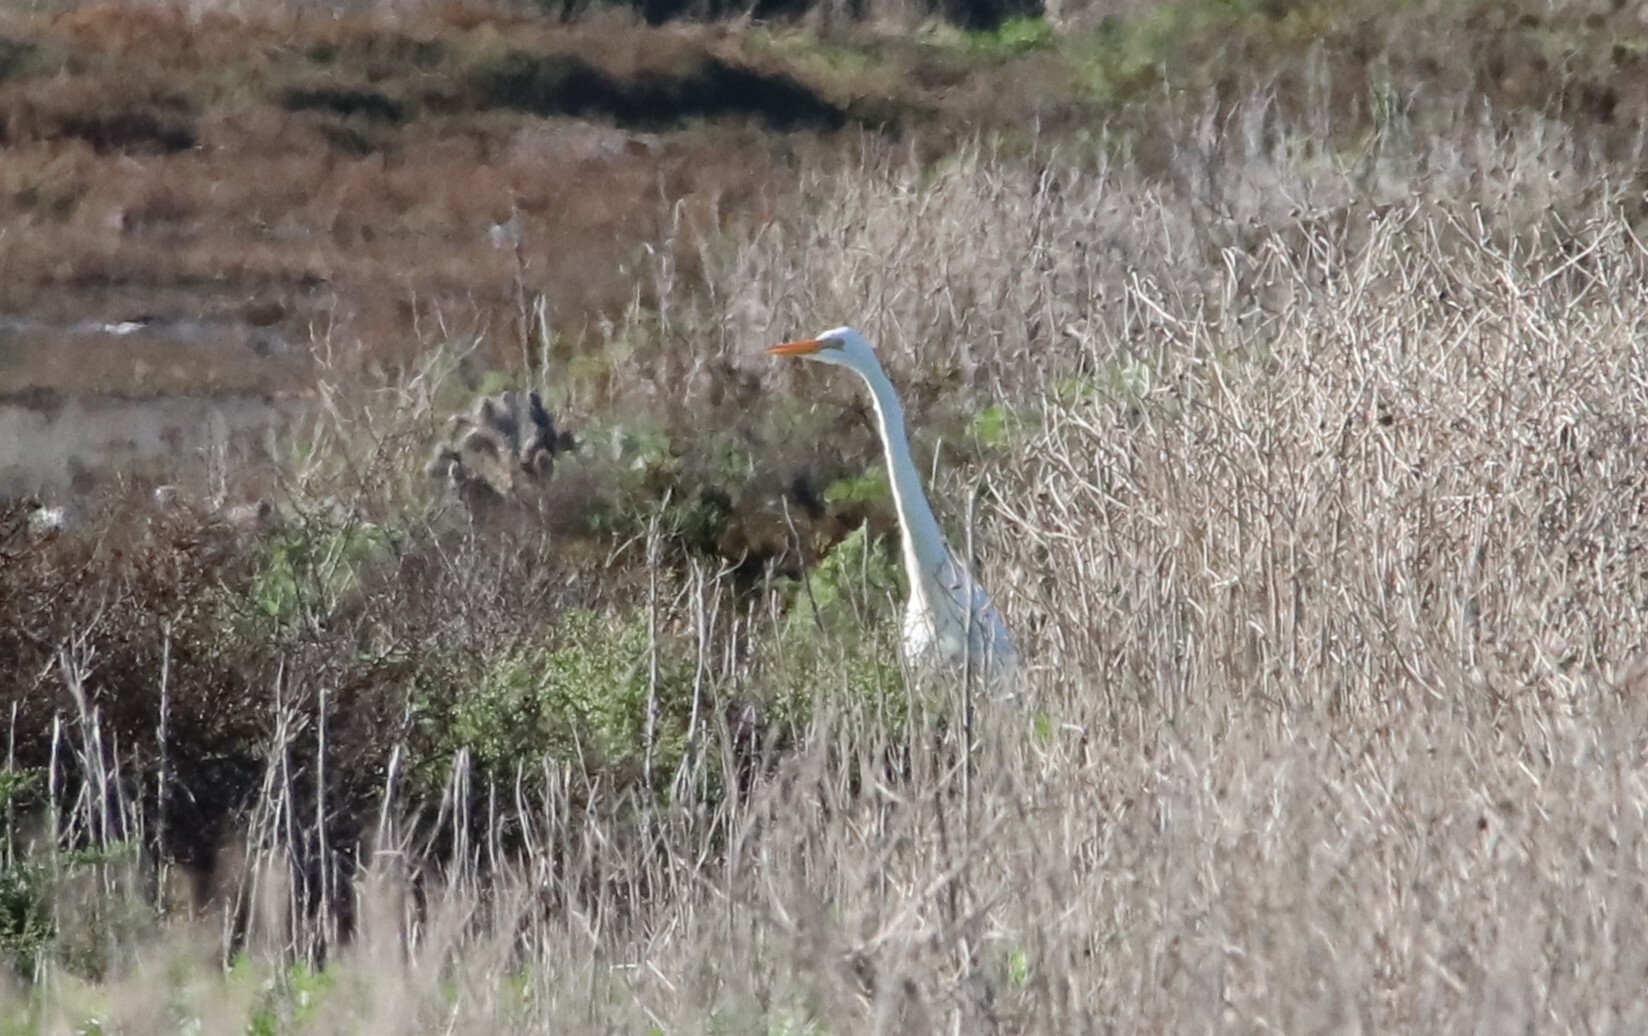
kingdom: Animalia
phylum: Chordata
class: Aves
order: Pelecaniformes
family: Ardeidae
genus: Ardea
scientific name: Ardea alba
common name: Great egret
